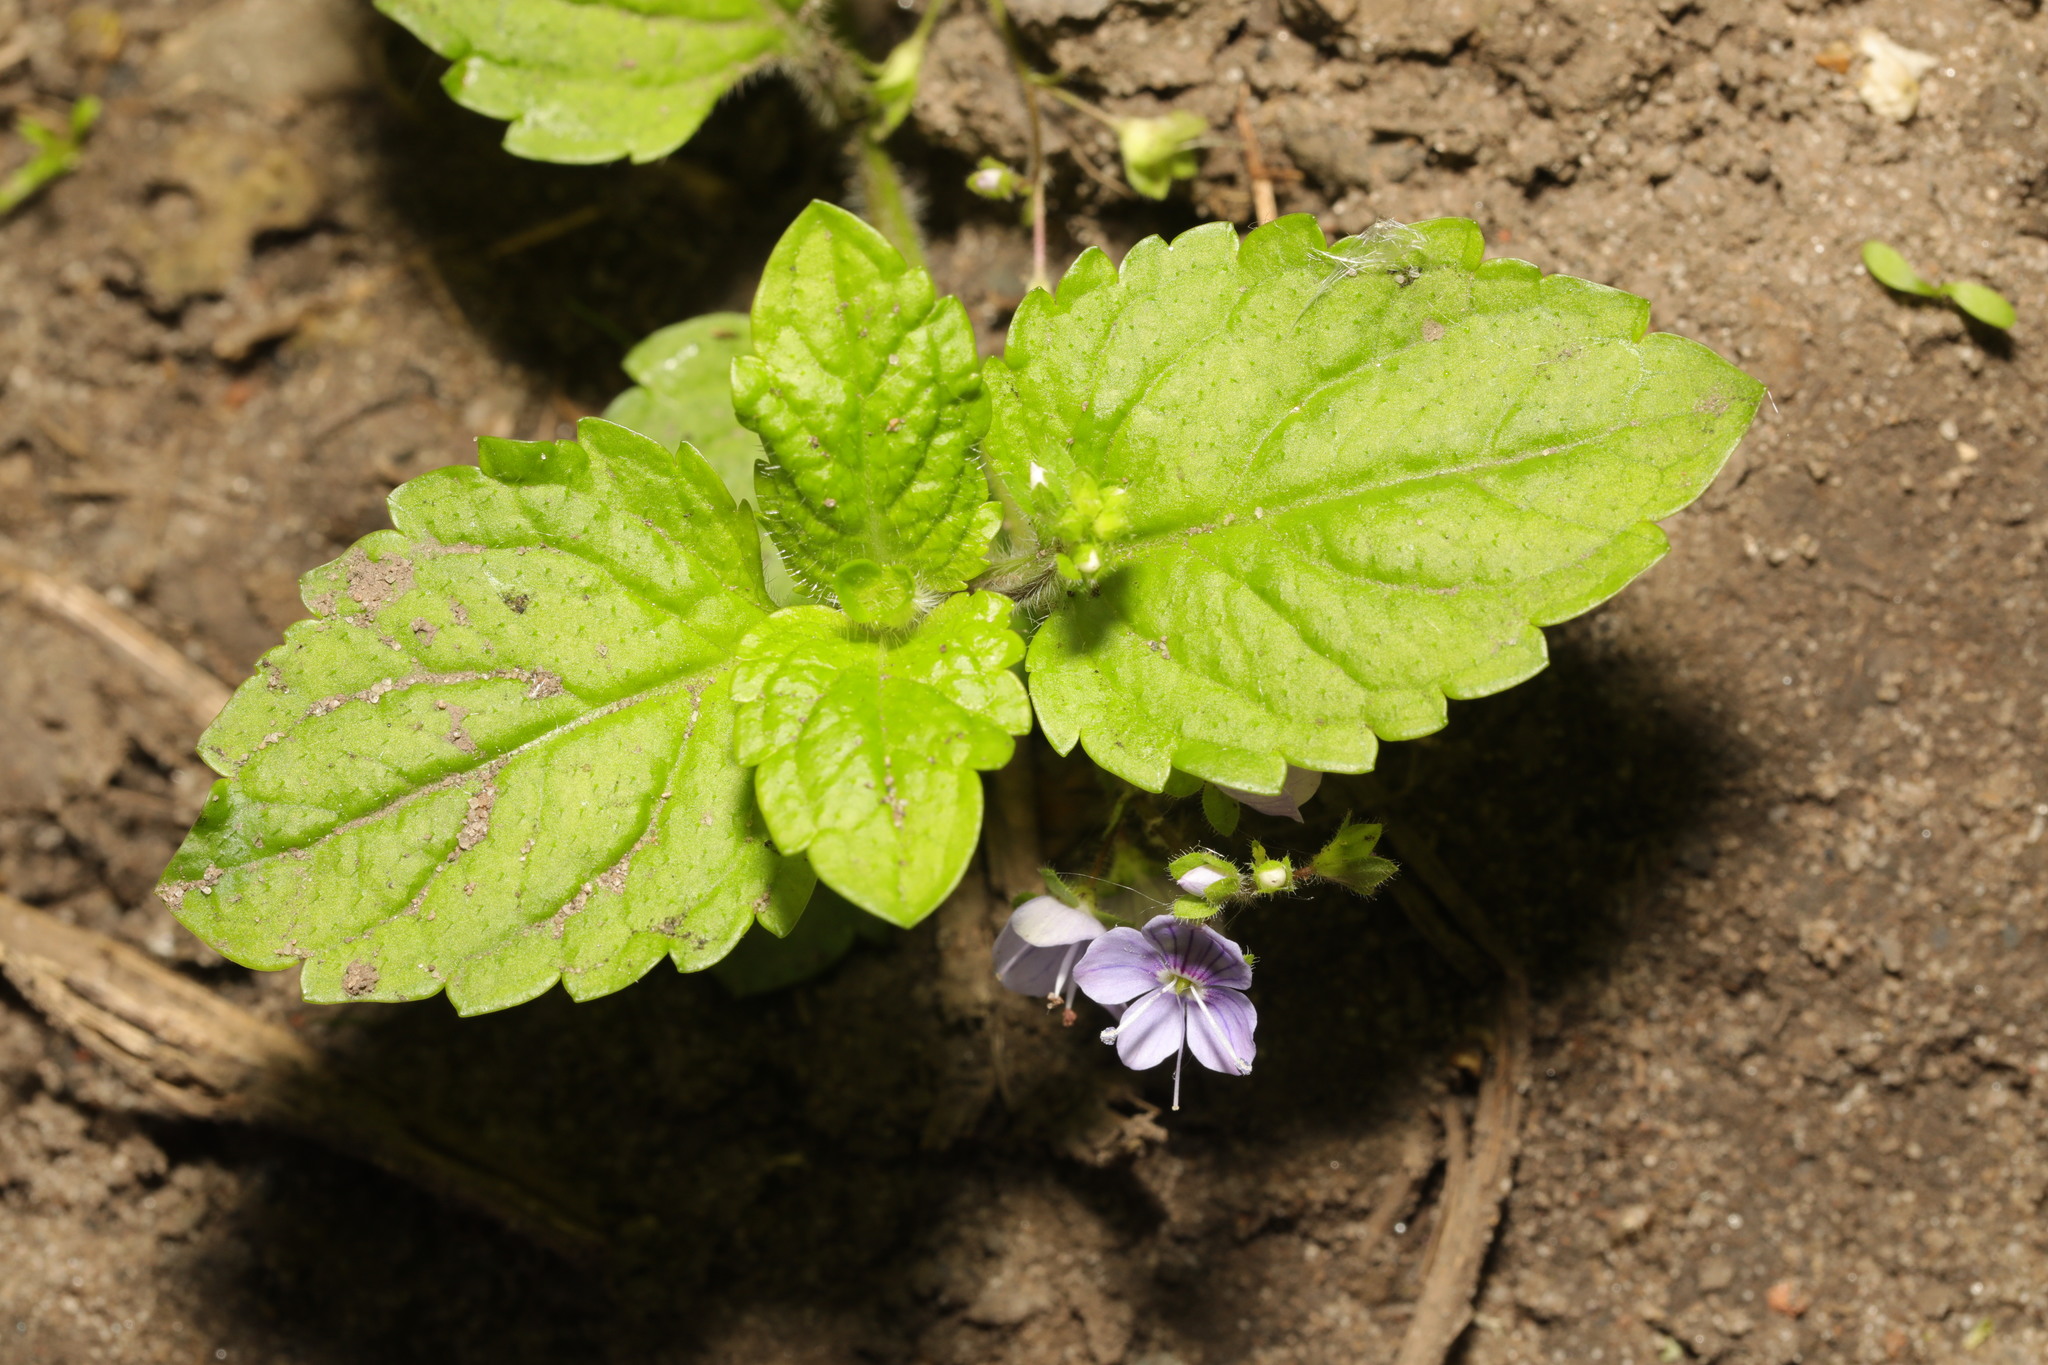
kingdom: Plantae
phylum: Tracheophyta
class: Magnoliopsida
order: Lamiales
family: Plantaginaceae
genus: Veronica
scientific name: Veronica montana
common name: Wood speedwell
